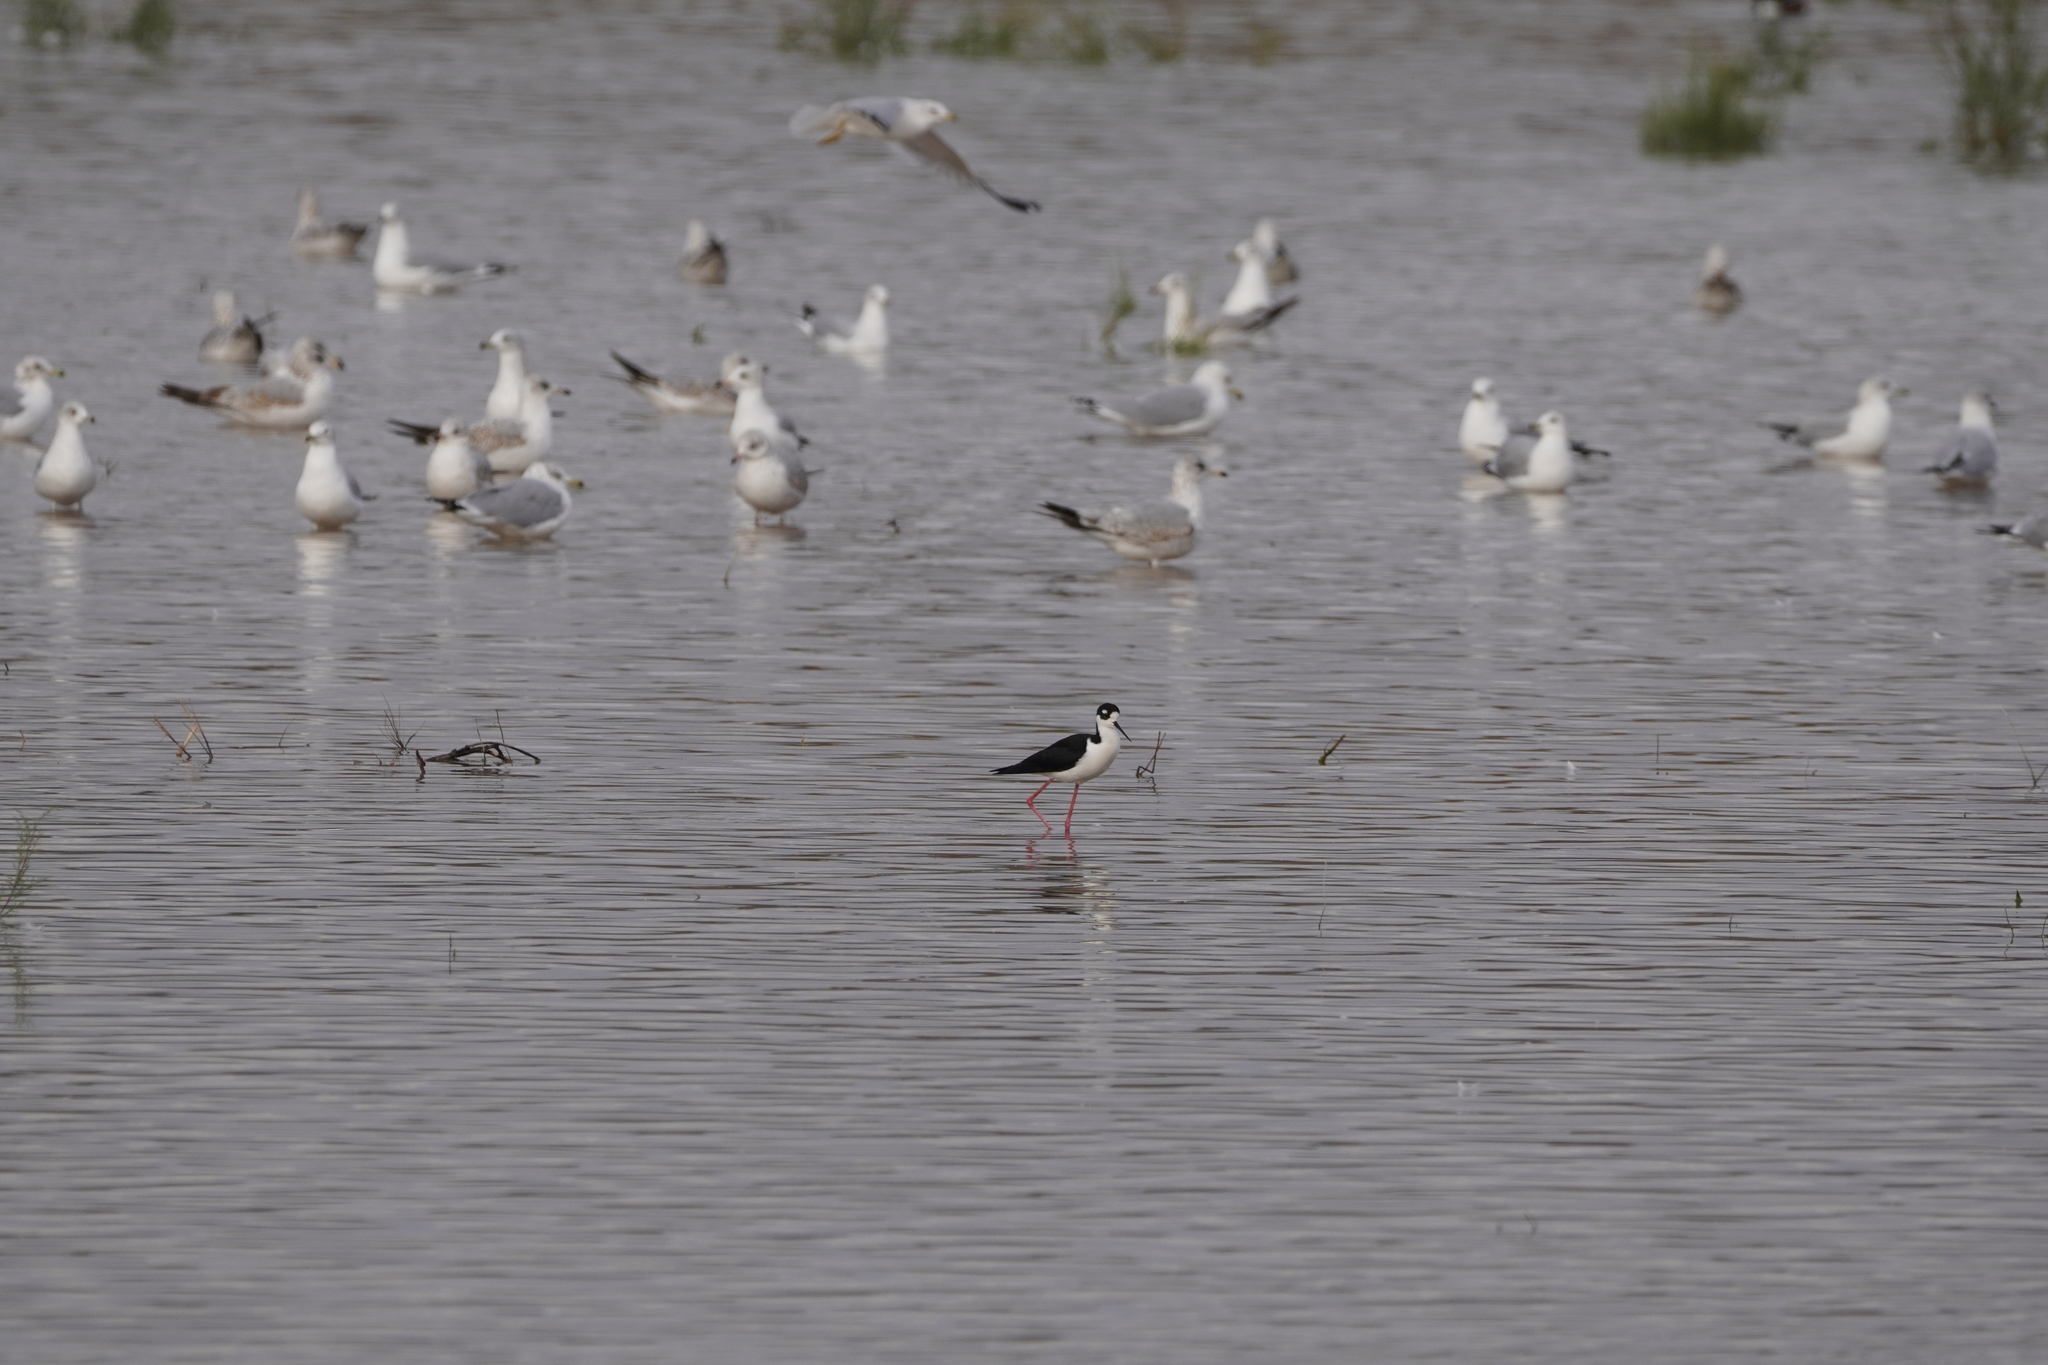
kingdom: Animalia
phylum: Chordata
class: Aves
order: Charadriiformes
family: Recurvirostridae
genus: Himantopus
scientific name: Himantopus mexicanus
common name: Black-necked stilt
